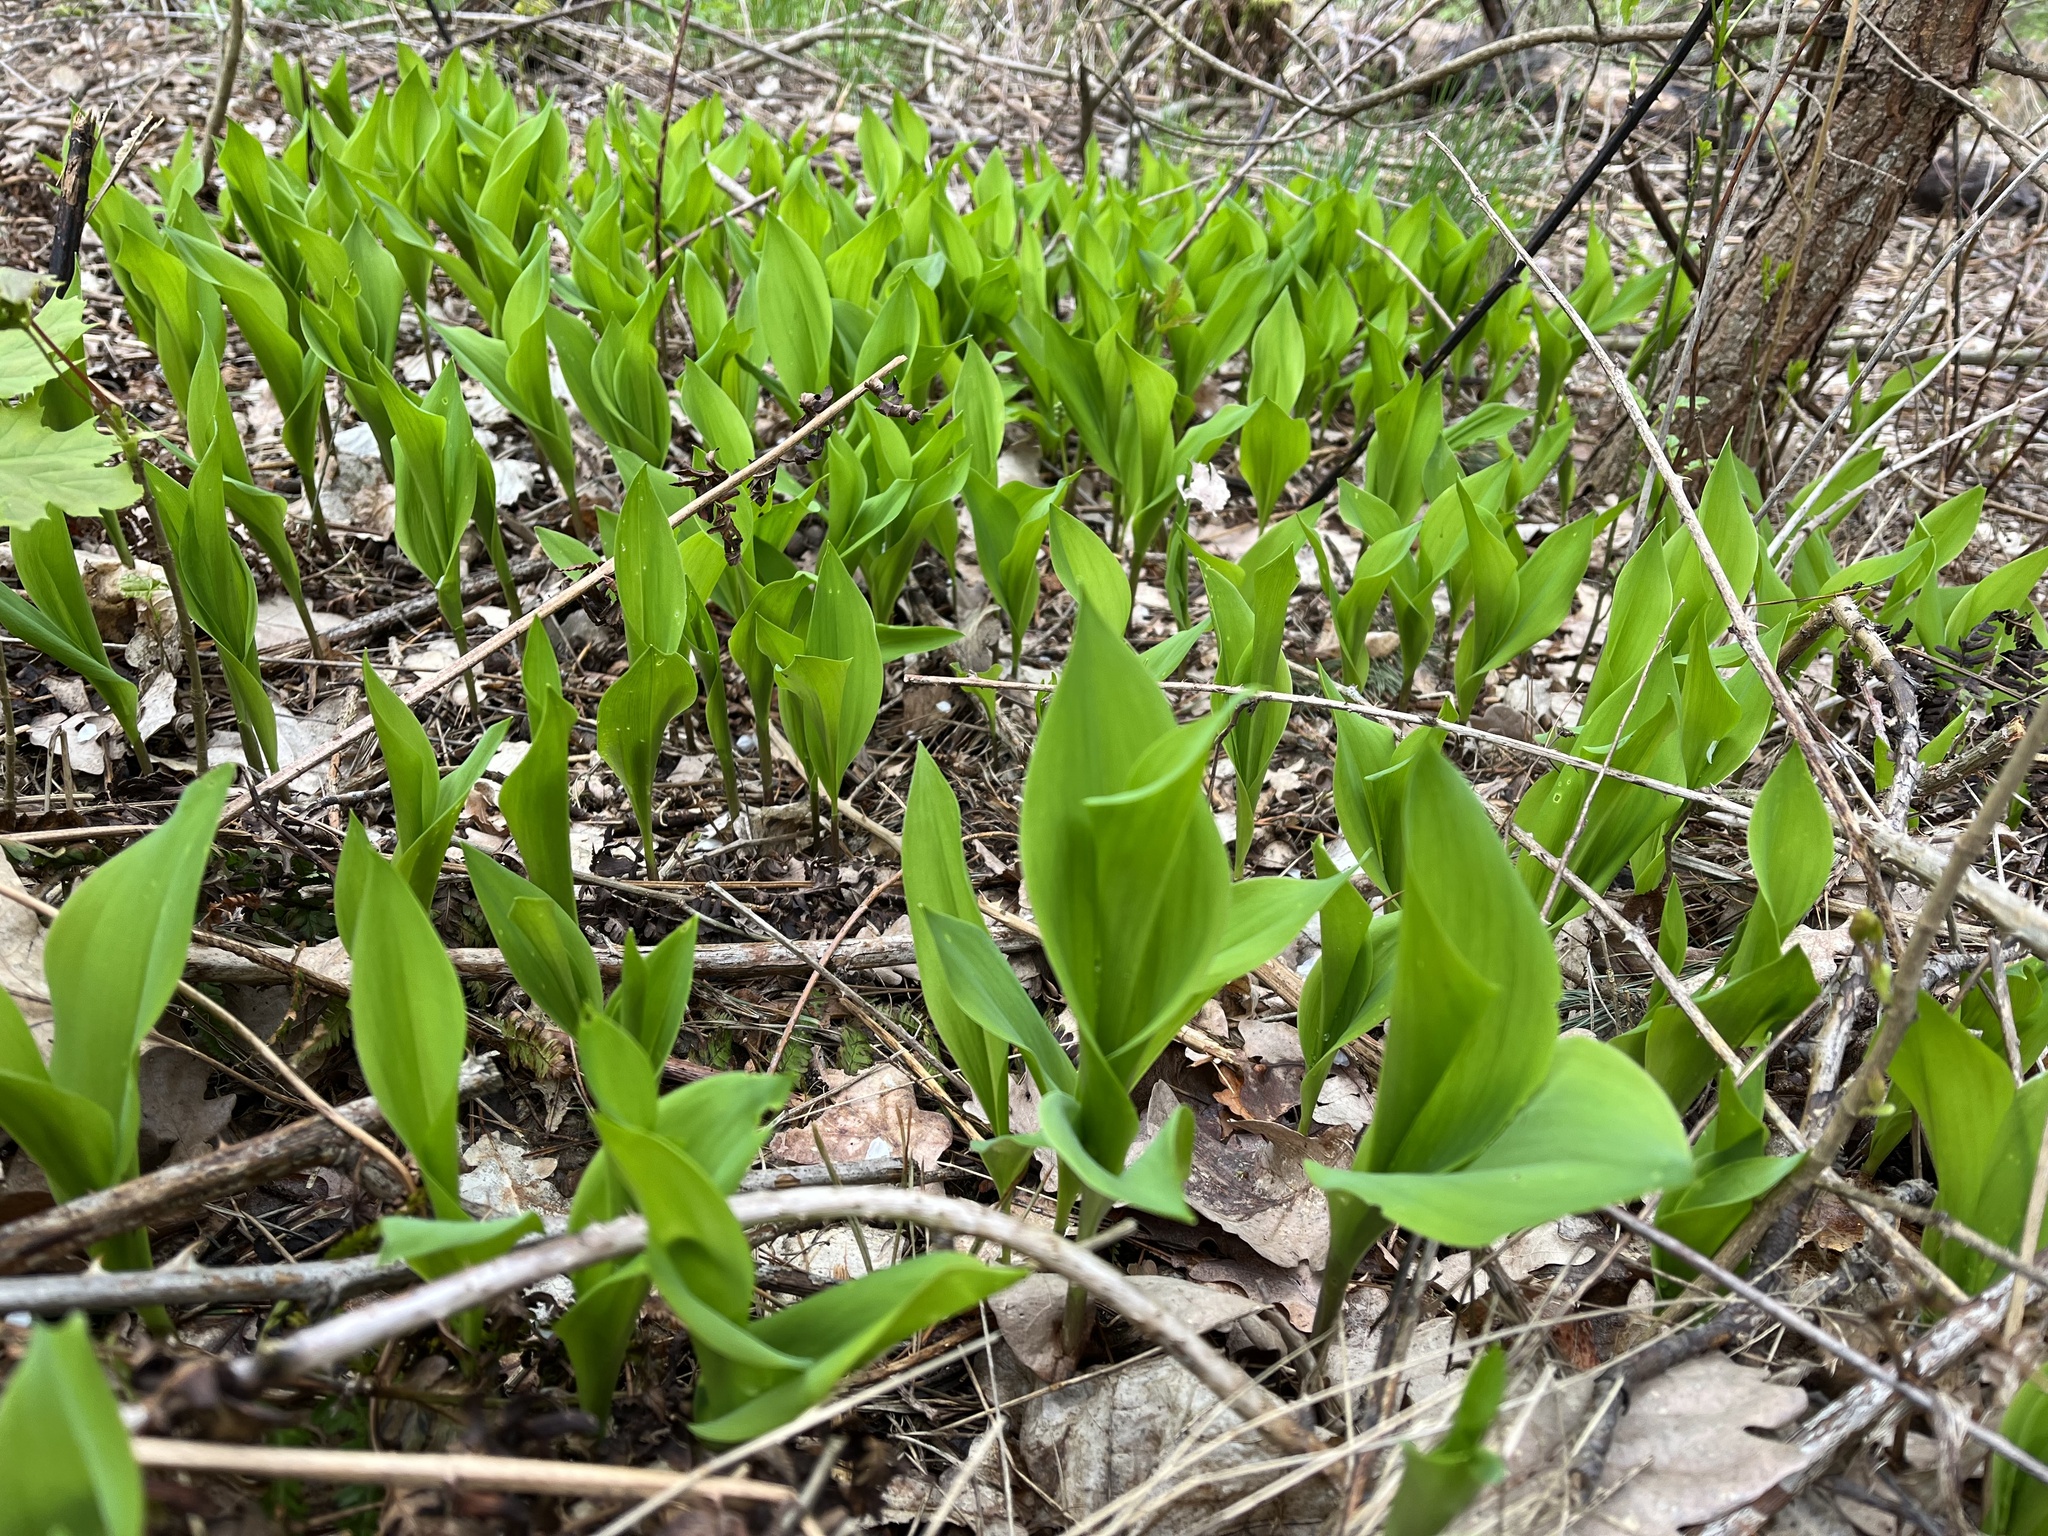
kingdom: Plantae
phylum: Tracheophyta
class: Liliopsida
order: Asparagales
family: Asparagaceae
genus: Convallaria
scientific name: Convallaria majalis
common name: Lily-of-the-valley
